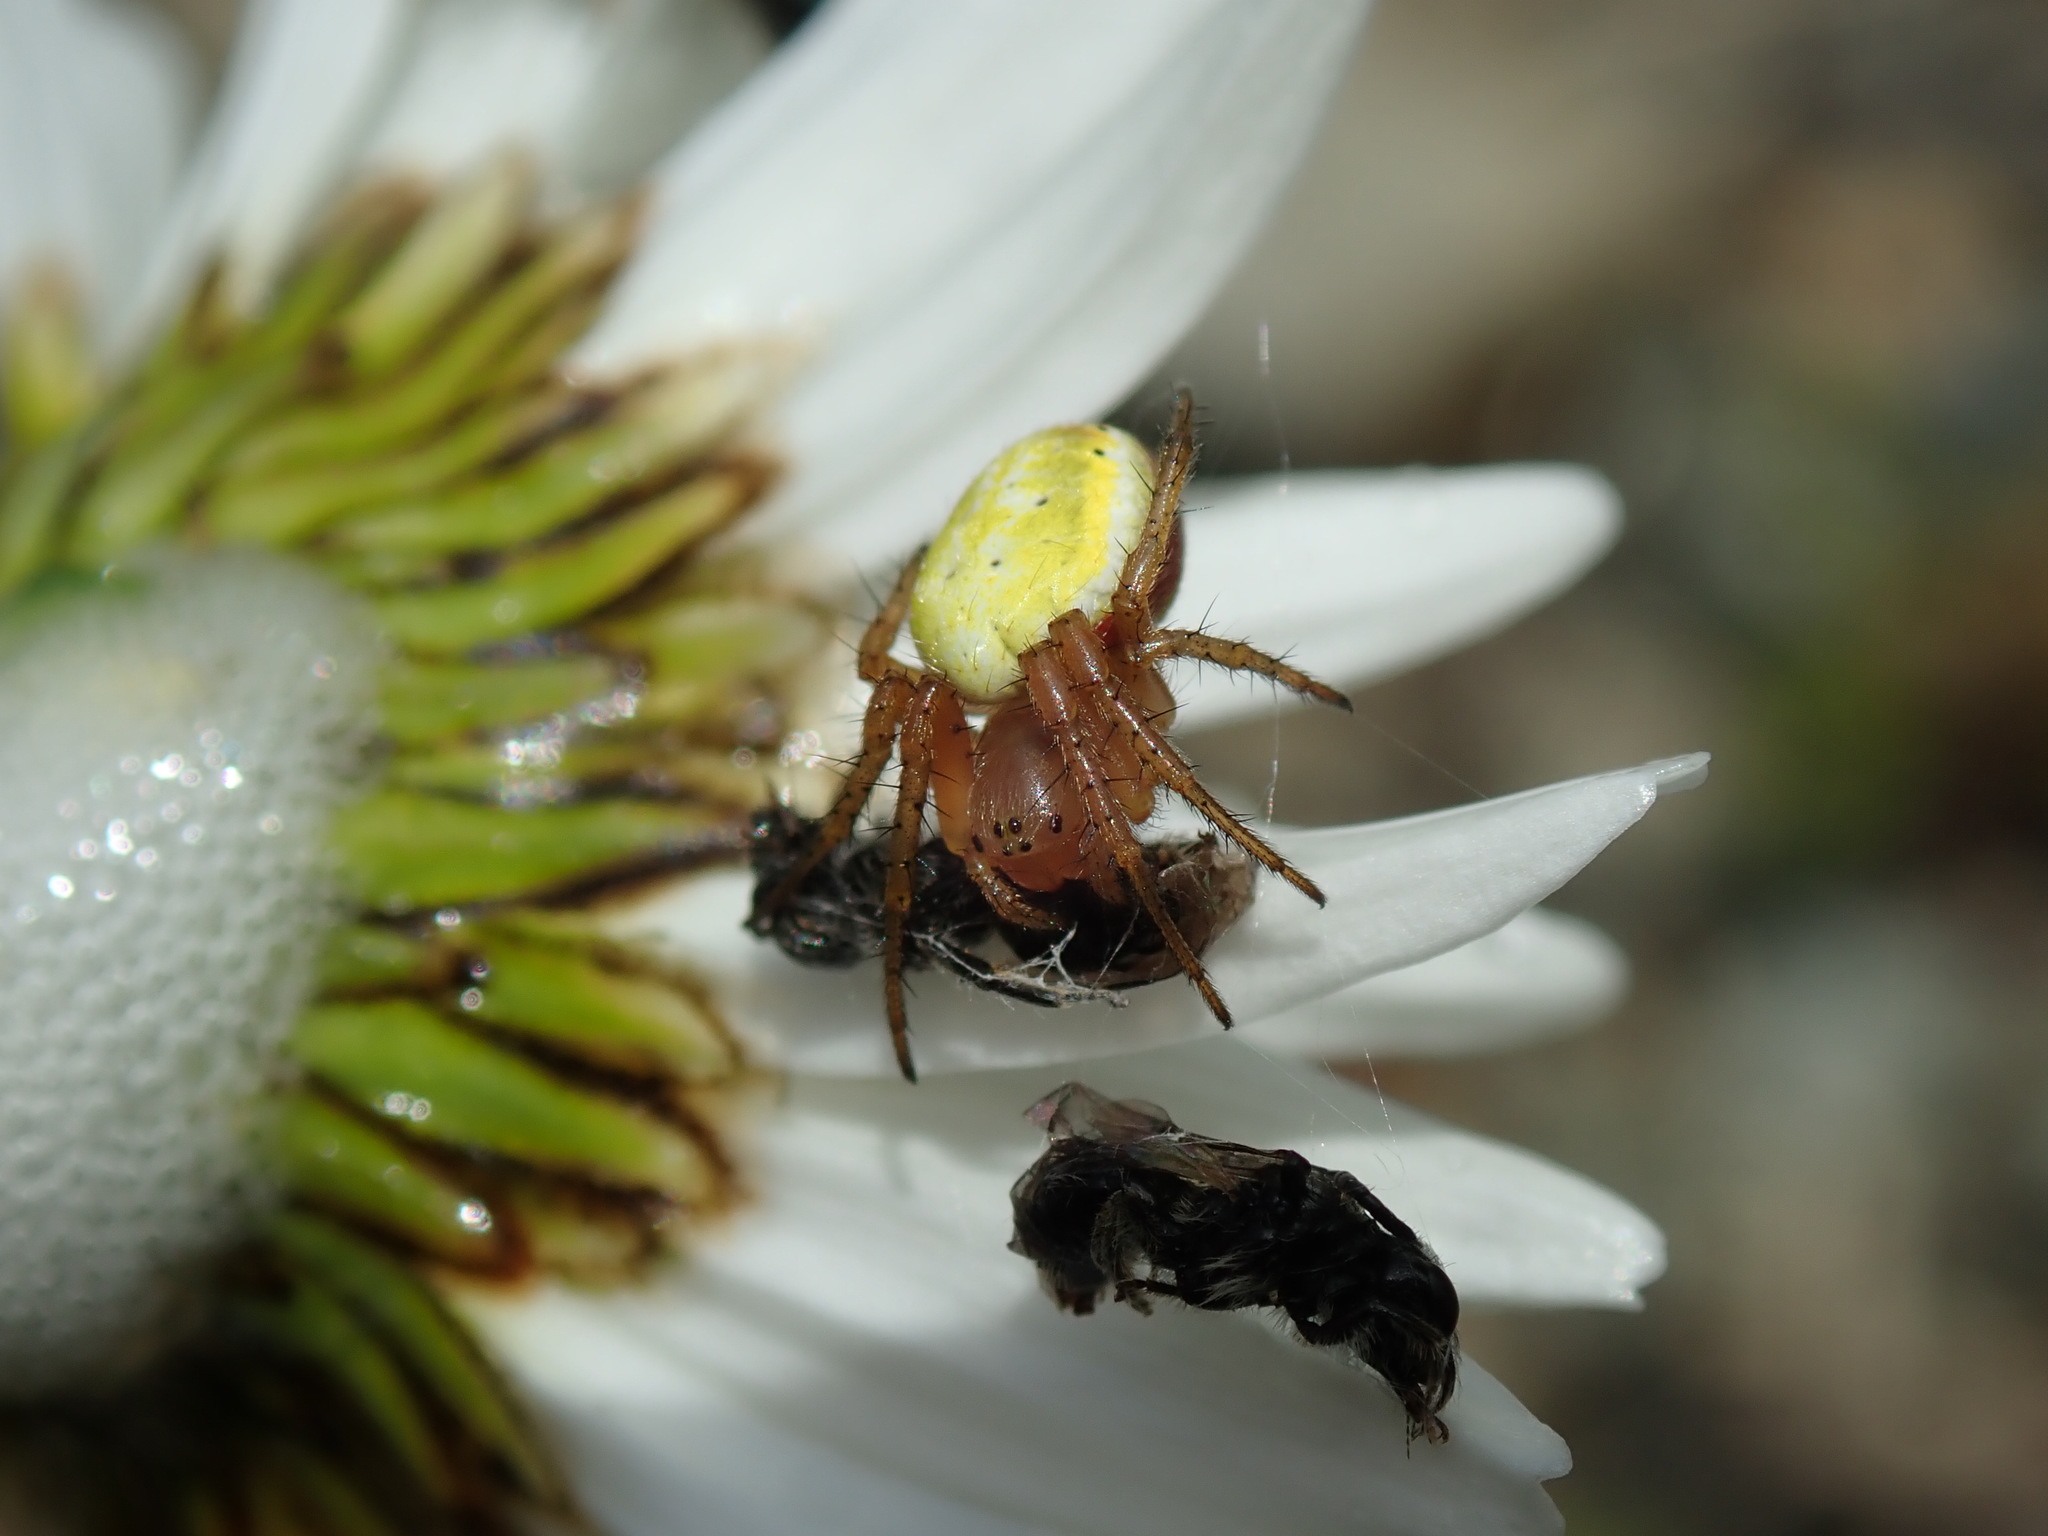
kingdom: Animalia
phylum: Arthropoda
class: Arachnida
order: Araneae
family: Araneidae
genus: Araniella
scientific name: Araniella displicata
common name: Sixspotted orb weaver
